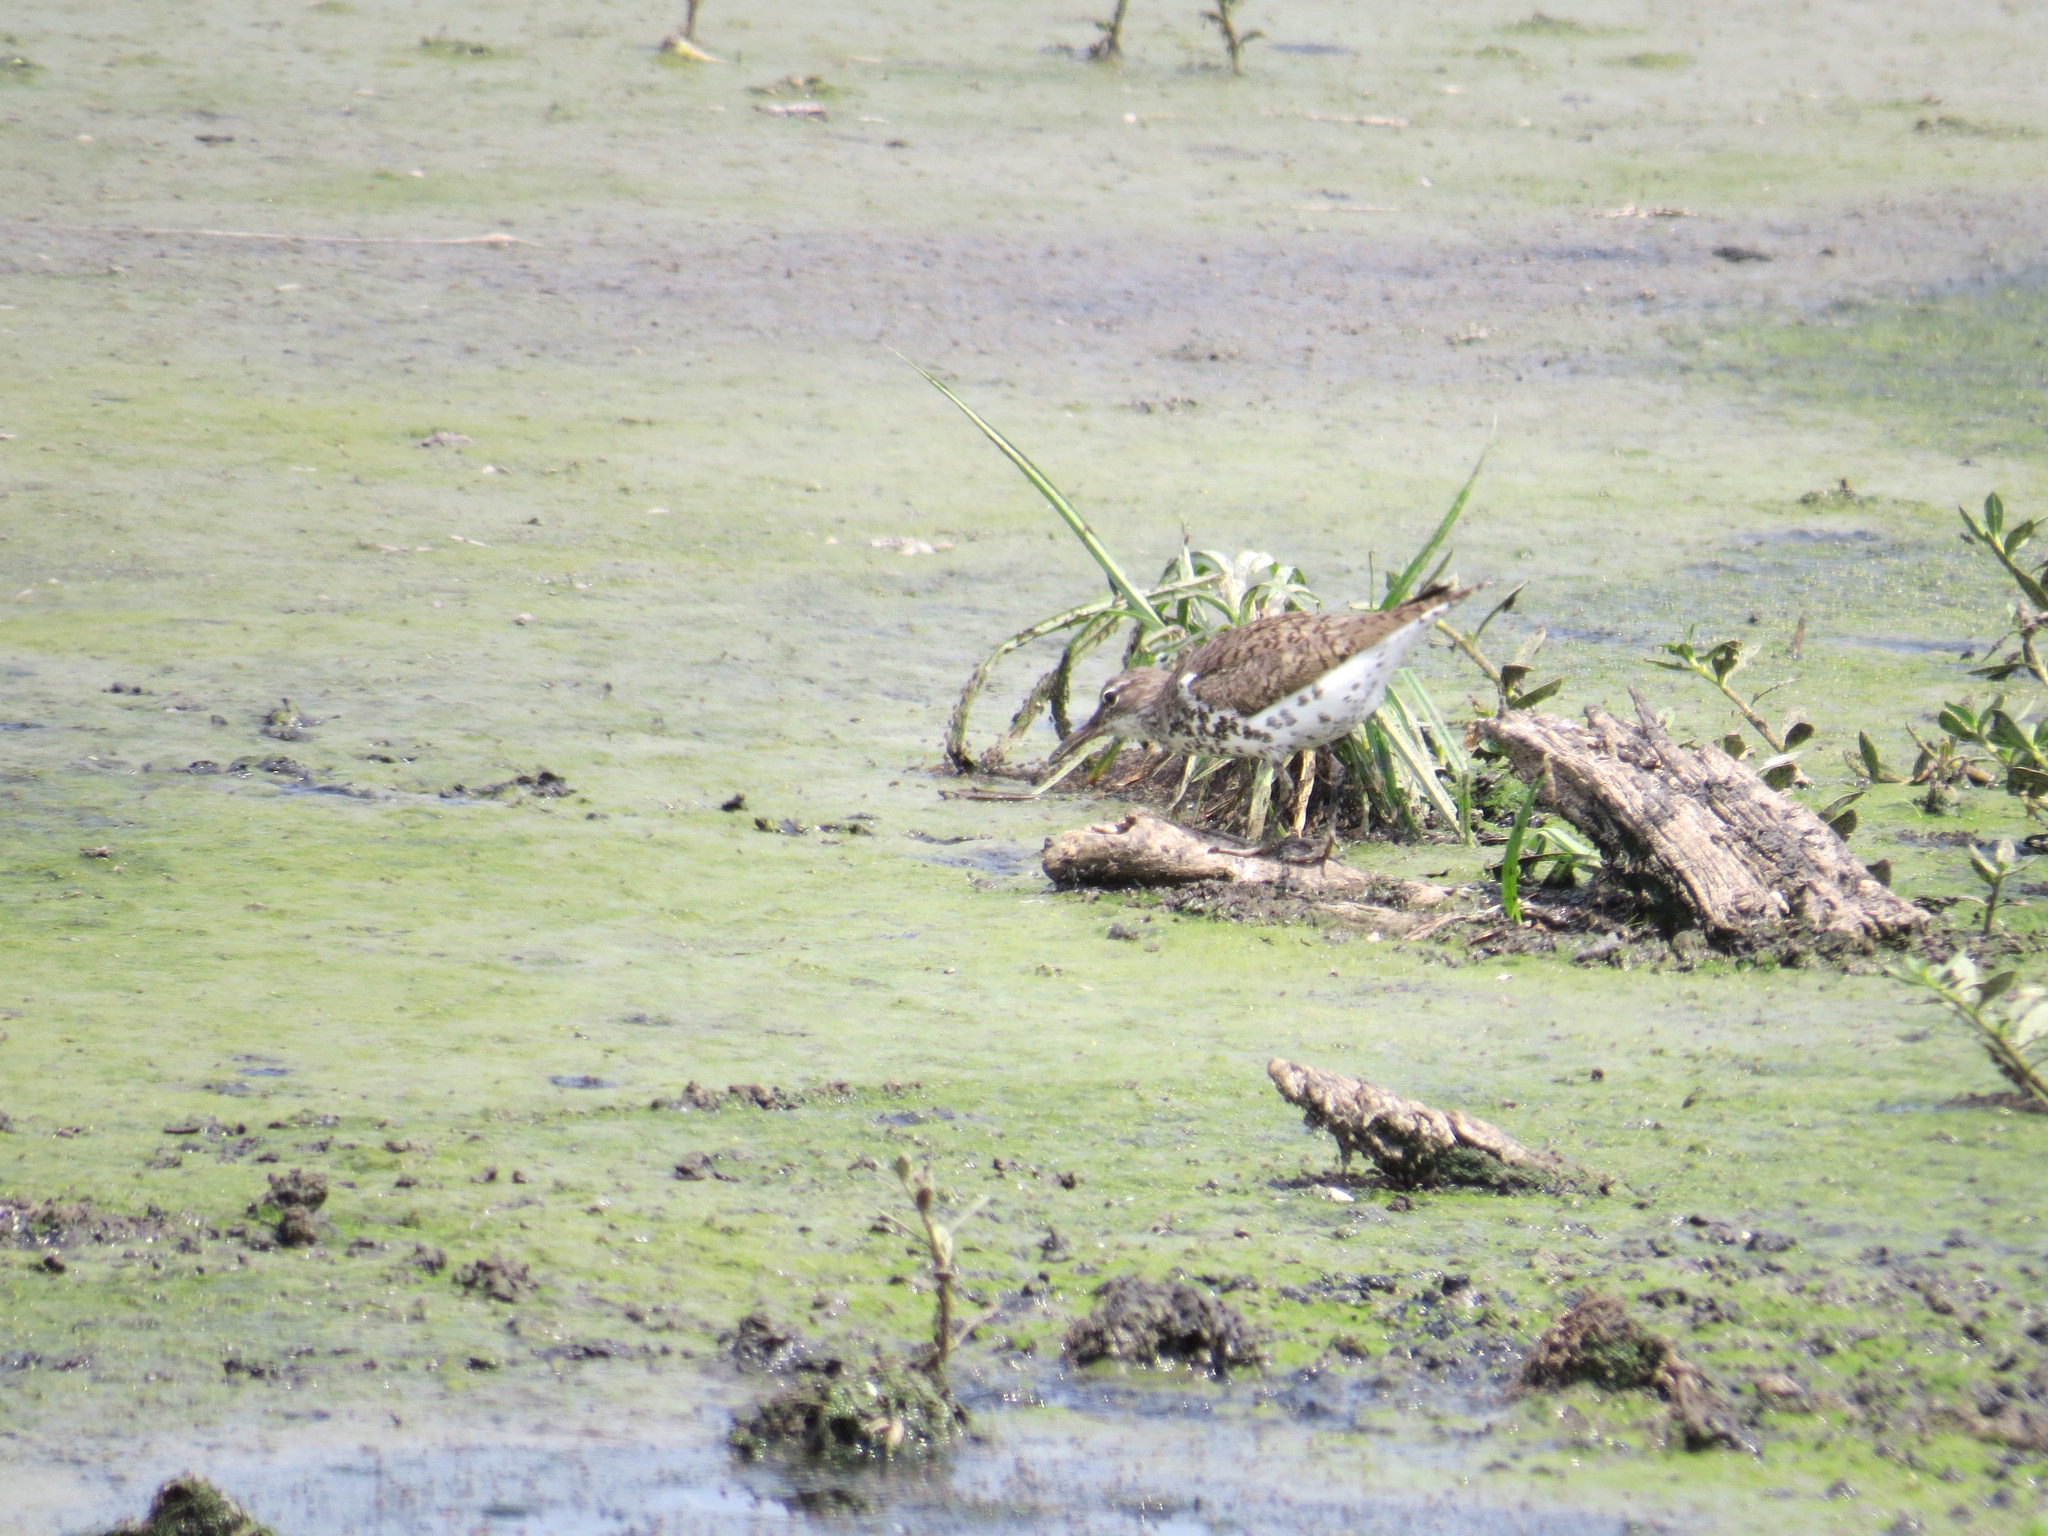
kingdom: Animalia
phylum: Chordata
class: Aves
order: Charadriiformes
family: Scolopacidae
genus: Actitis
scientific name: Actitis macularius
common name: Spotted sandpiper
